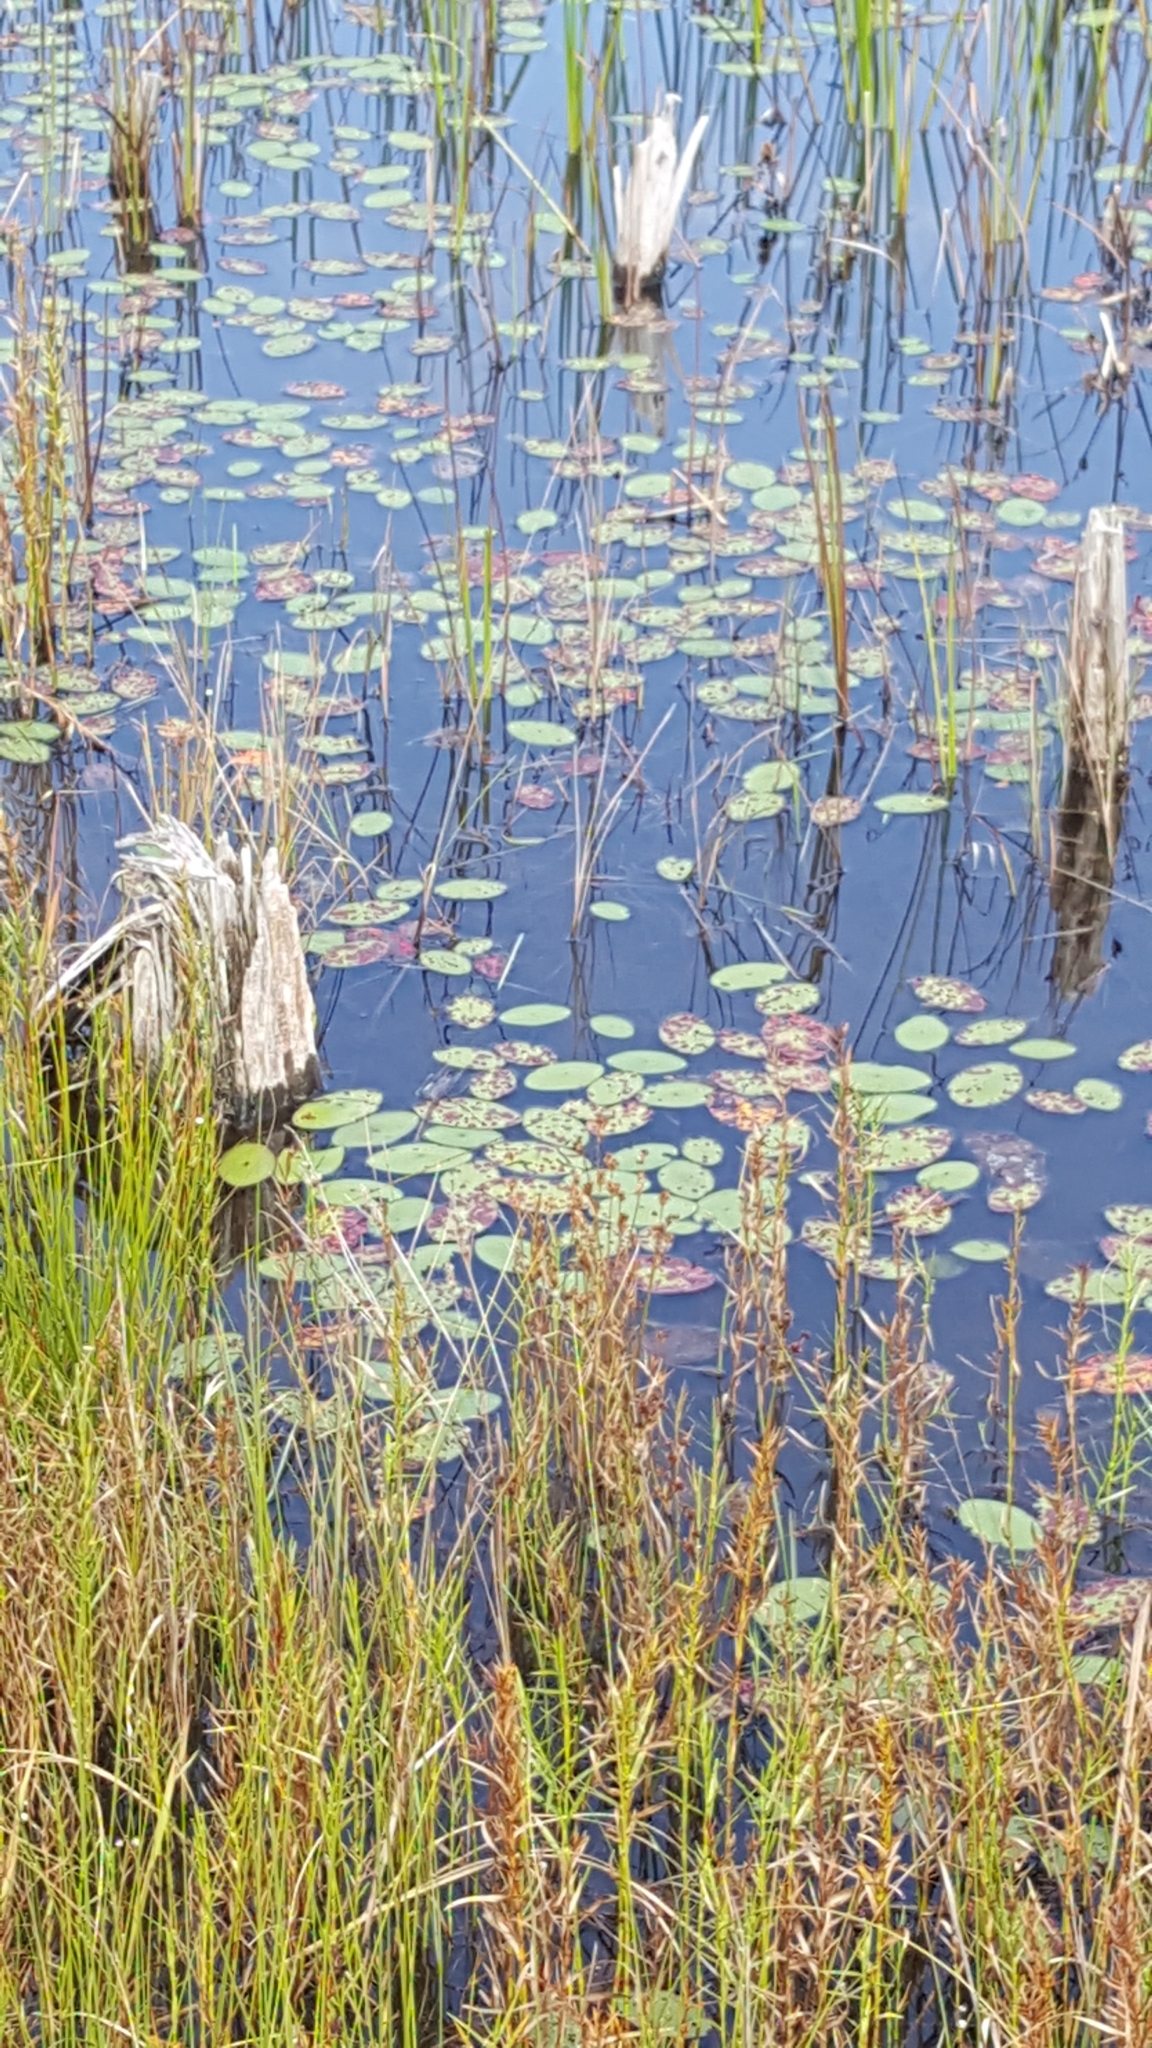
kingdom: Plantae
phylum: Tracheophyta
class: Magnoliopsida
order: Nymphaeales
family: Cabombaceae
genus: Brasenia
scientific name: Brasenia schreberi
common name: Water-shield
